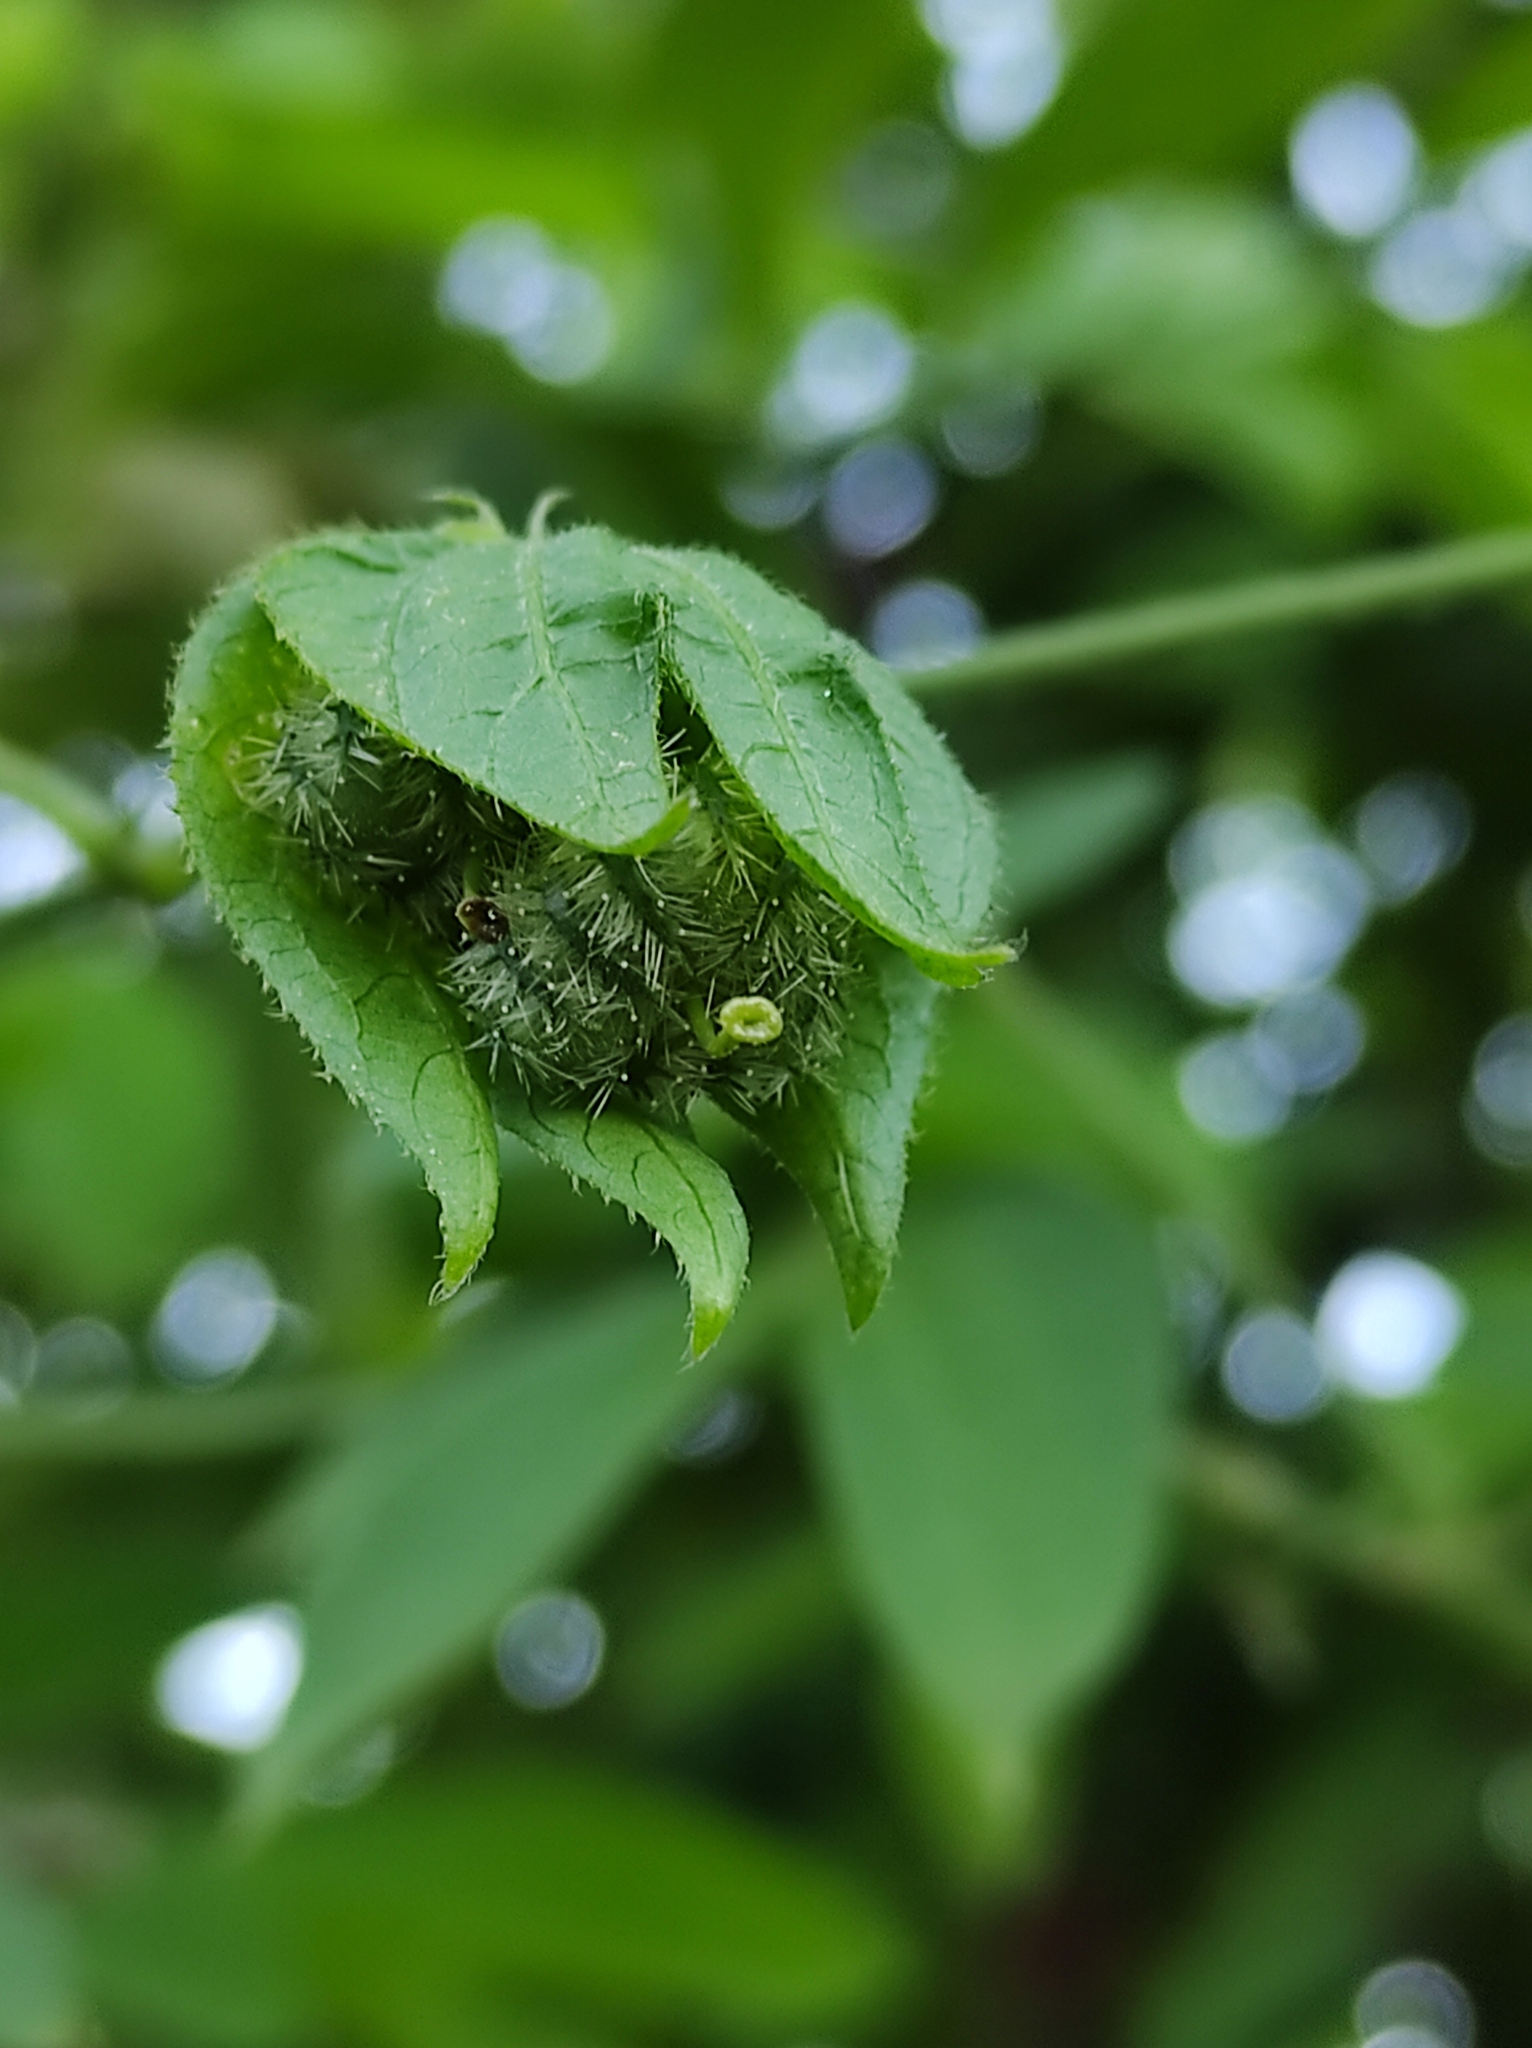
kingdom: Plantae
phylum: Tracheophyta
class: Magnoliopsida
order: Malpighiales
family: Euphorbiaceae
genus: Dalechampia
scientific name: Dalechampia scandens
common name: Spurgecreeper
